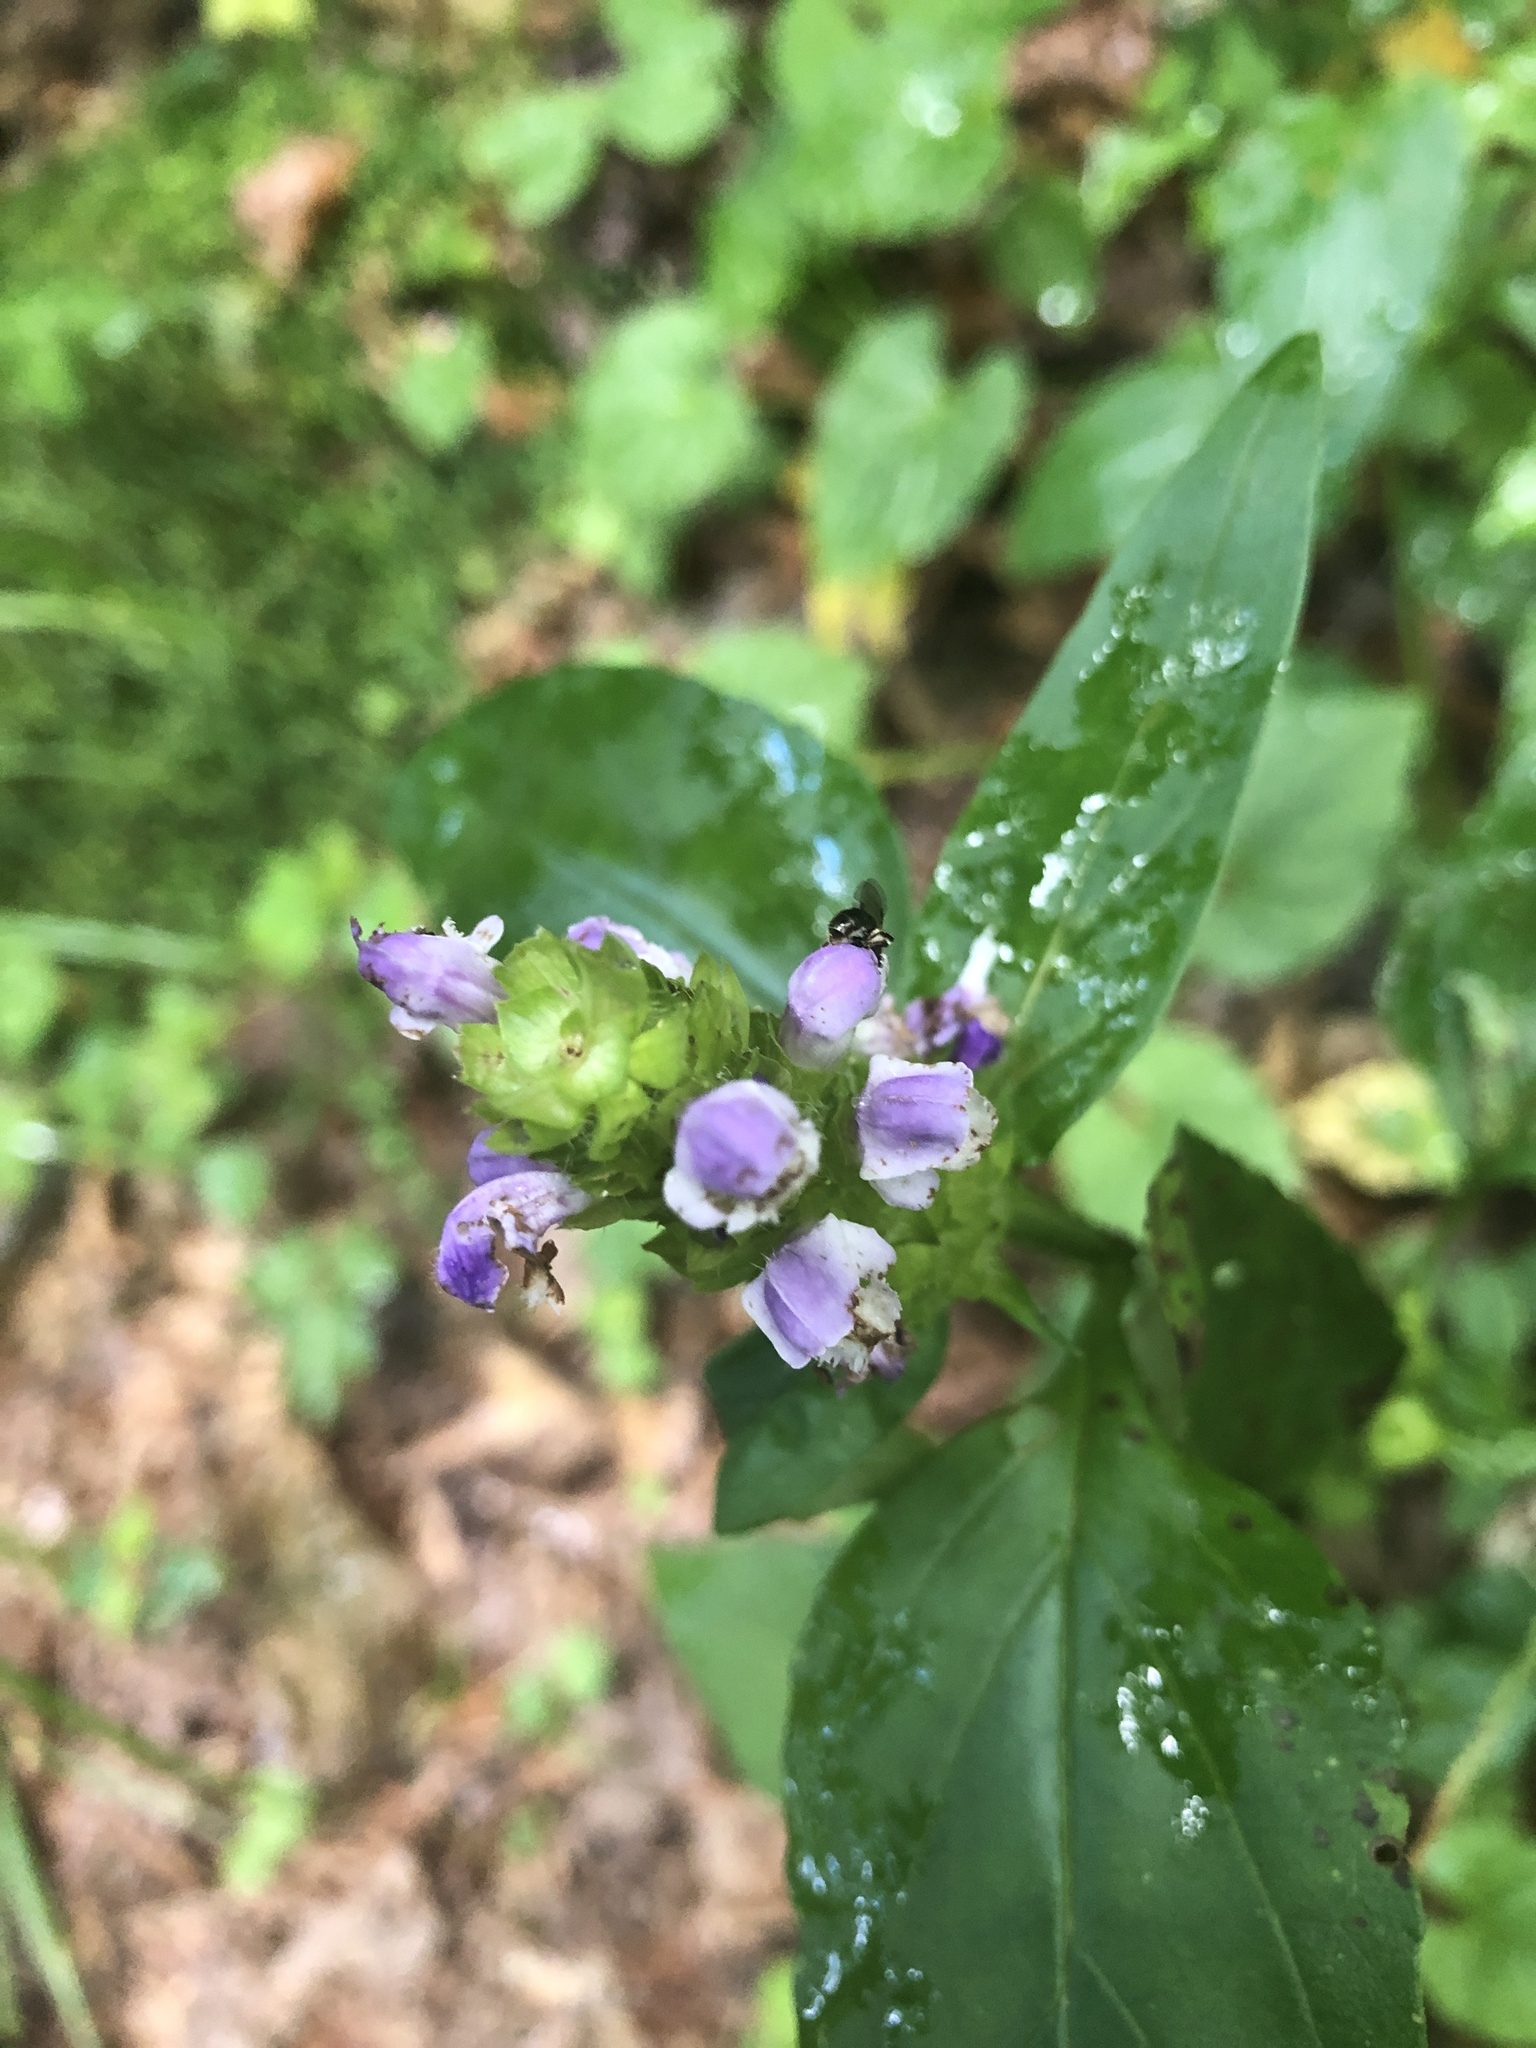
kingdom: Plantae
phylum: Tracheophyta
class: Magnoliopsida
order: Lamiales
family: Lamiaceae
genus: Prunella
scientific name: Prunella vulgaris
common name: Heal-all
